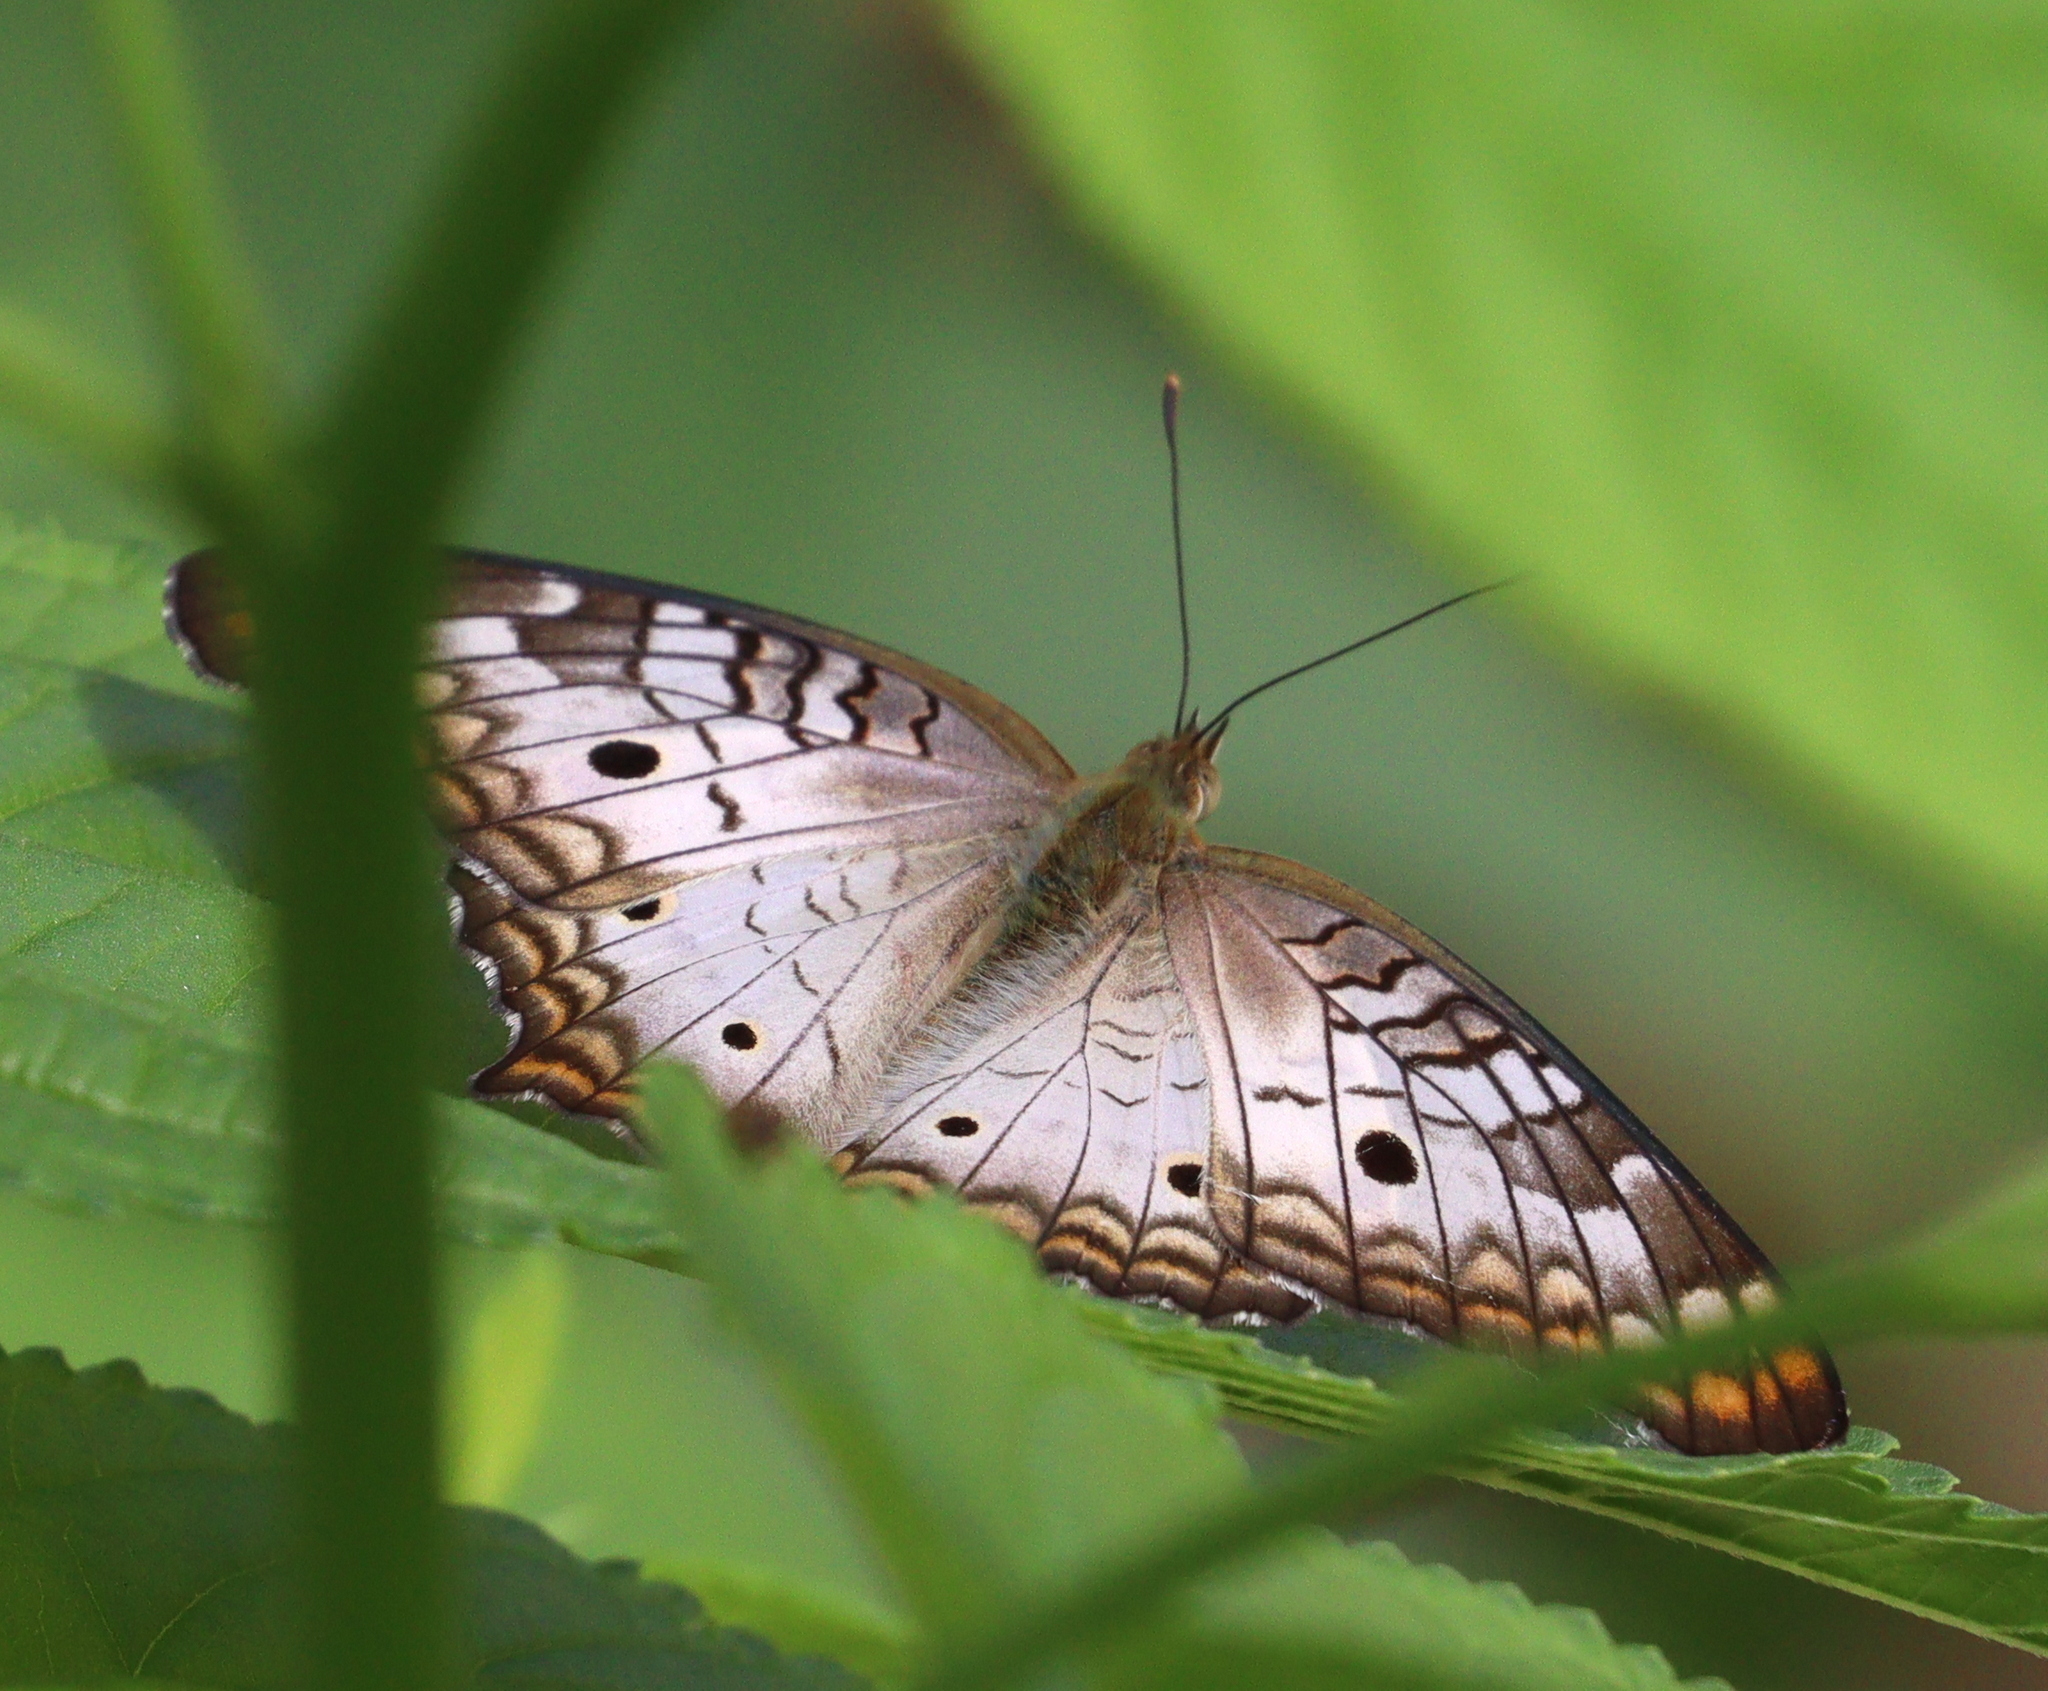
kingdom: Animalia
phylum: Arthropoda
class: Insecta
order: Lepidoptera
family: Nymphalidae
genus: Anartia
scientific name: Anartia jatrophae
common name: White peacock
